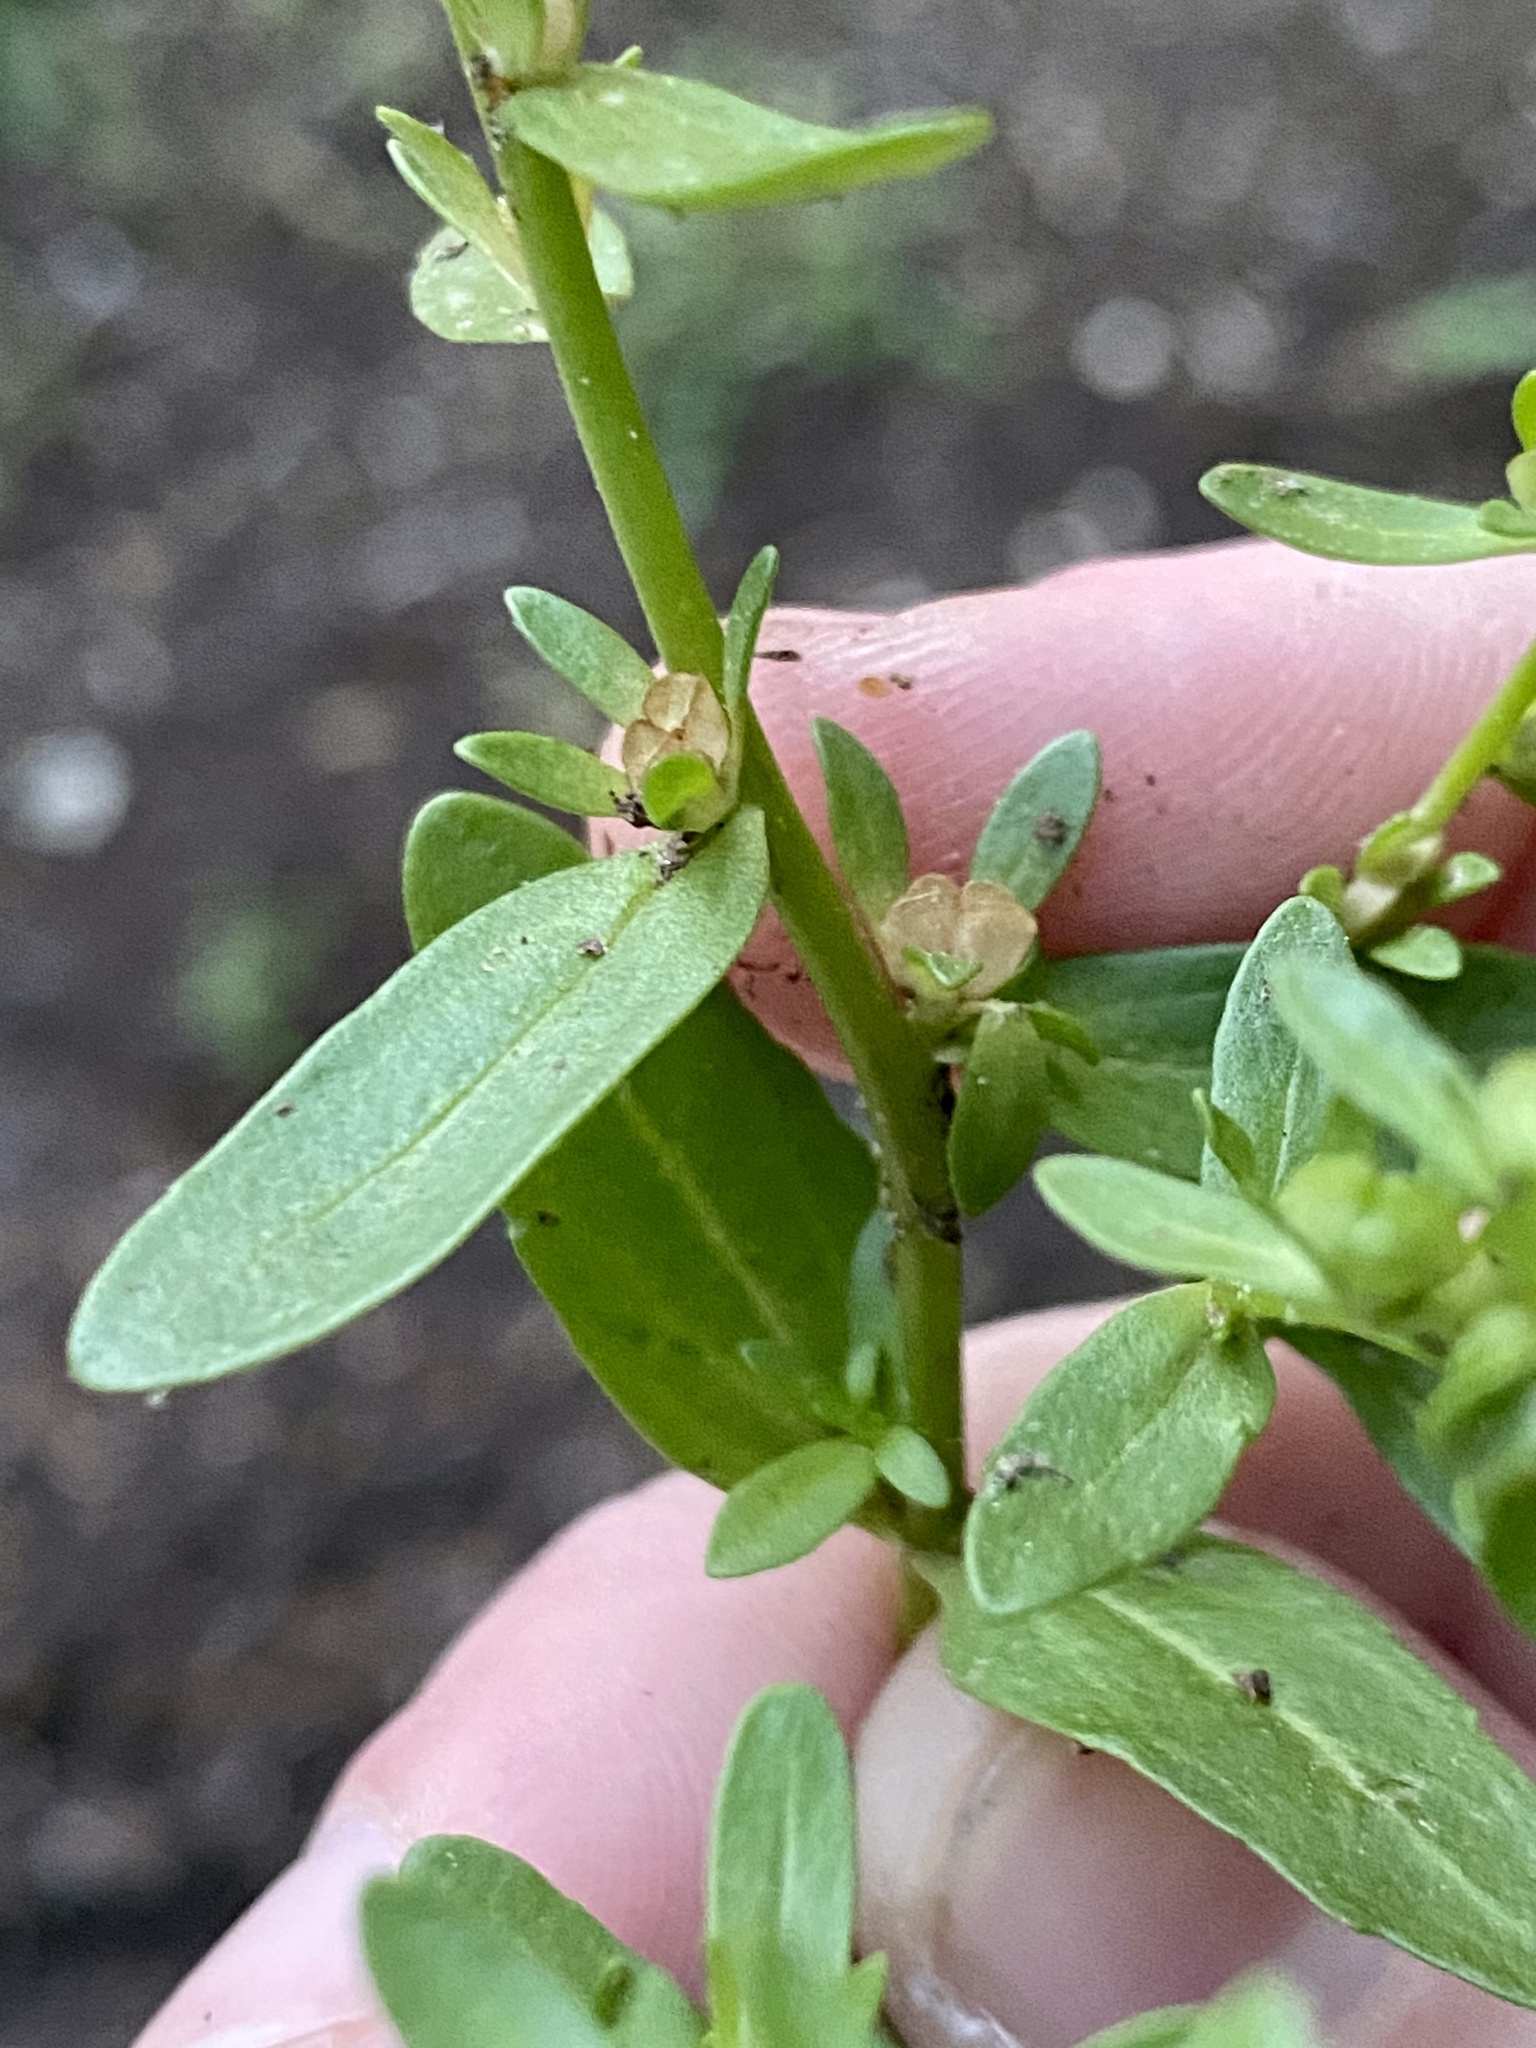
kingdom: Plantae
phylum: Tracheophyta
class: Magnoliopsida
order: Lamiales
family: Plantaginaceae
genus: Veronica
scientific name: Veronica peregrina
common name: Neckweed
